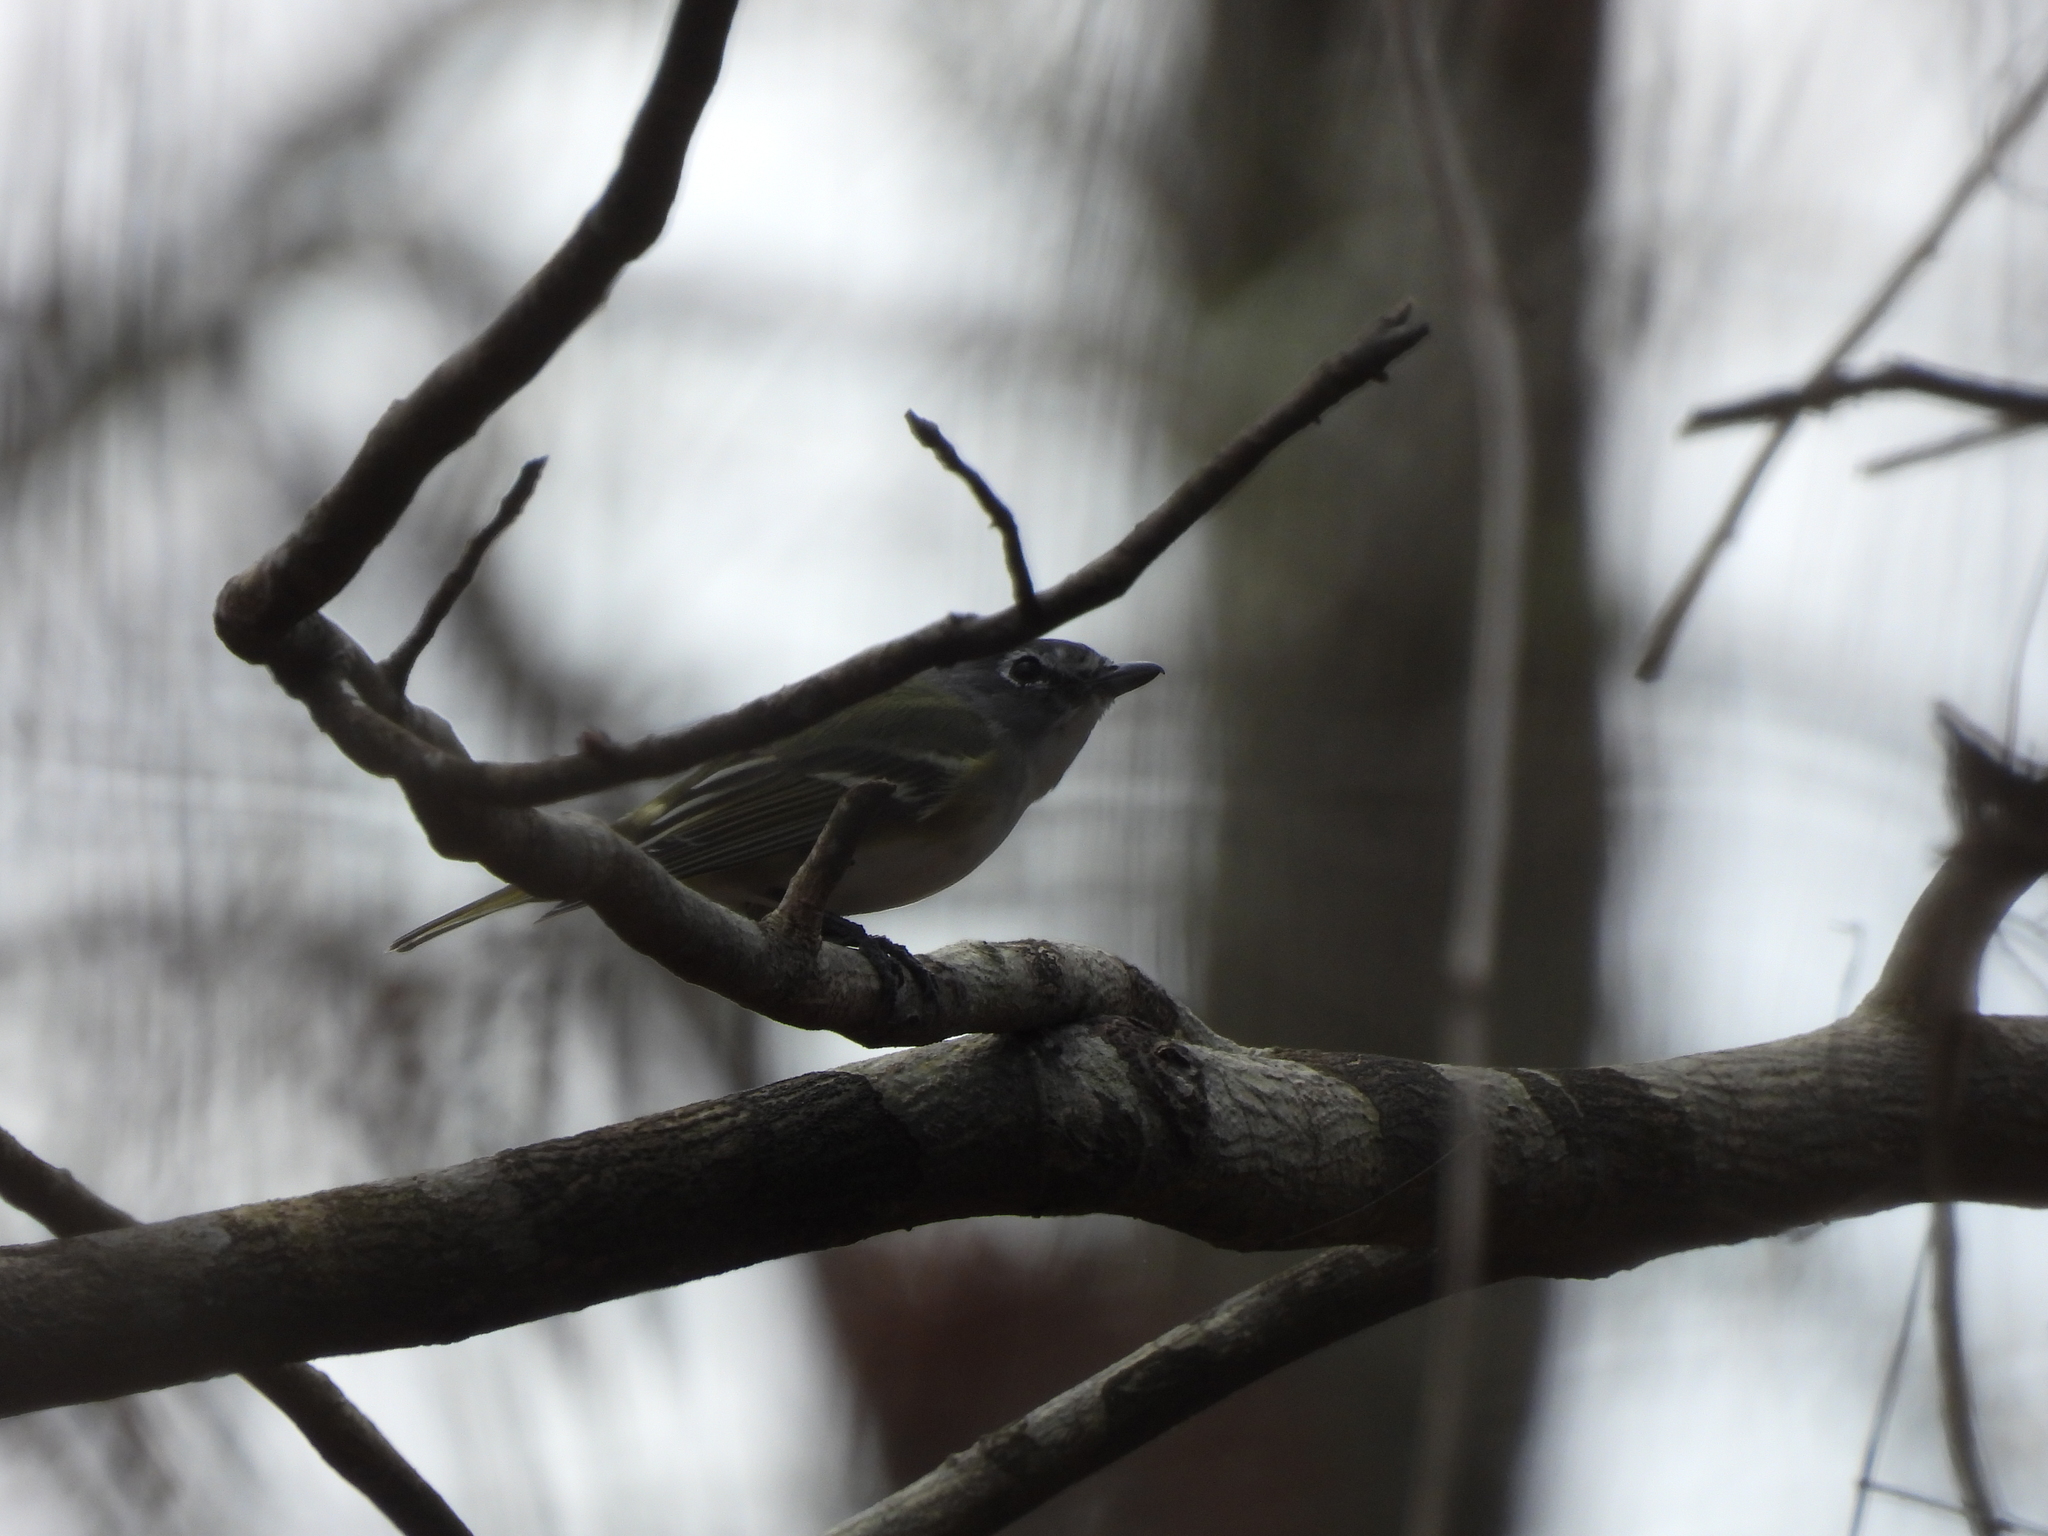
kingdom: Animalia
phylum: Chordata
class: Aves
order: Passeriformes
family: Vireonidae
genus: Vireo
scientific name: Vireo solitarius
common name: Blue-headed vireo
